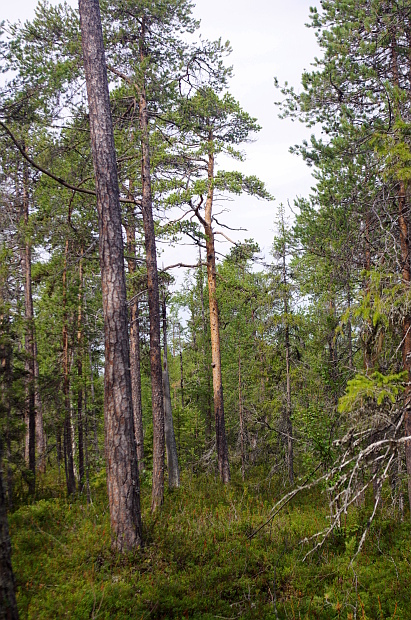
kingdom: Plantae
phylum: Tracheophyta
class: Pinopsida
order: Pinales
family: Pinaceae
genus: Pinus
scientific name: Pinus sylvestris
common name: Scots pine
